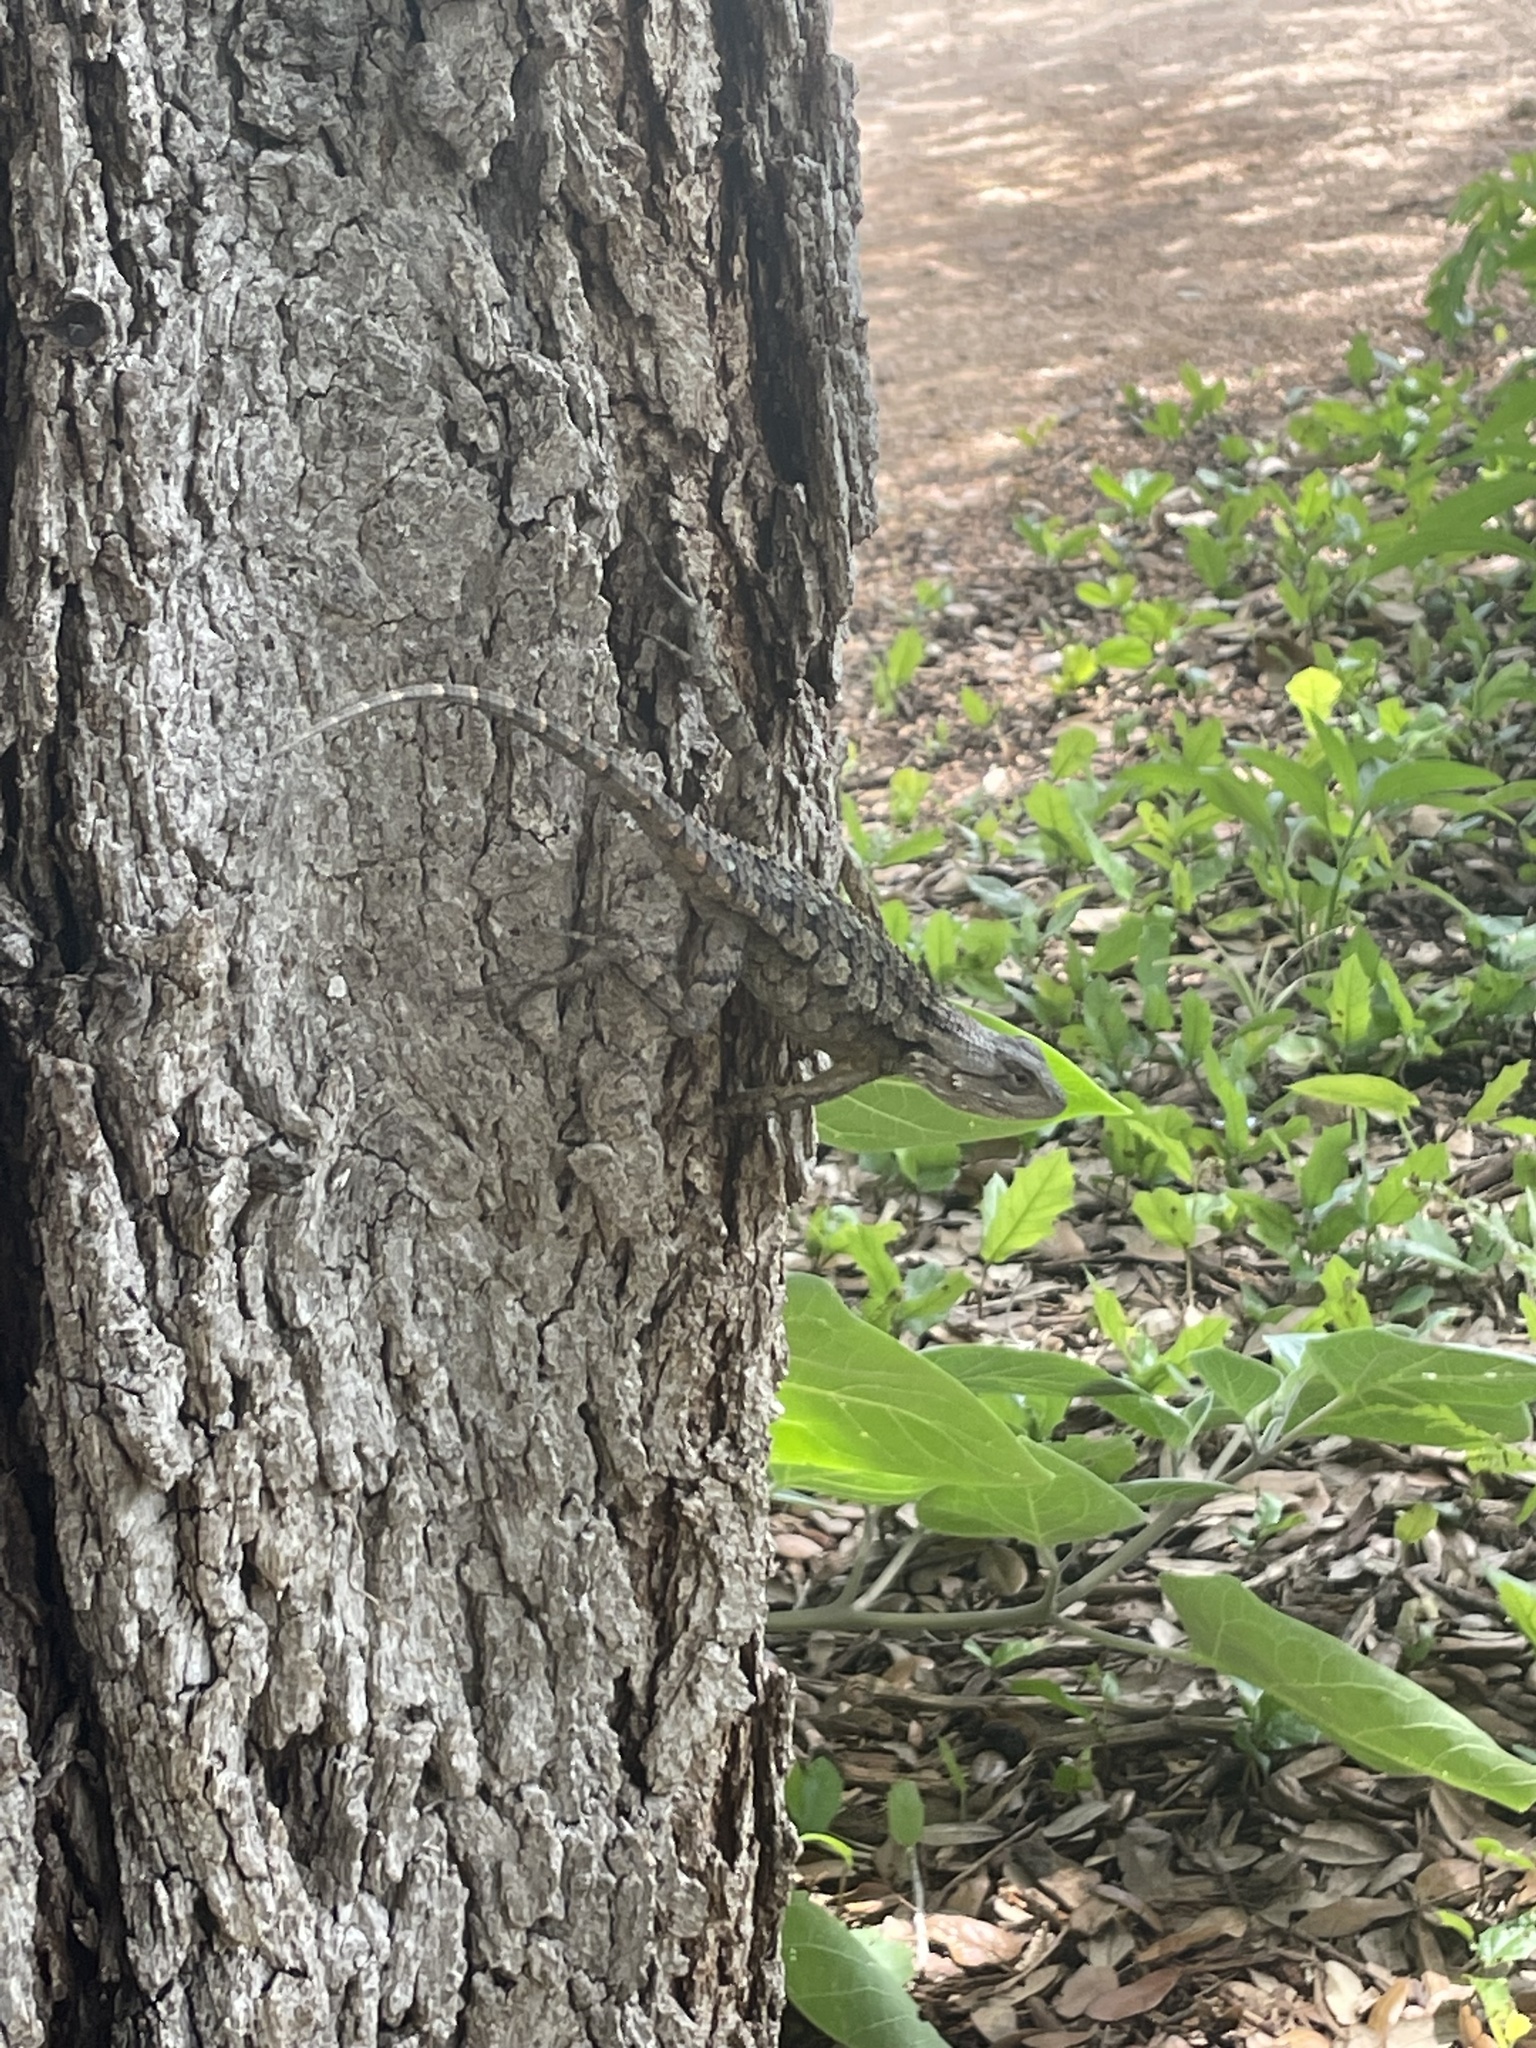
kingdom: Animalia
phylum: Chordata
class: Squamata
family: Phrynosomatidae
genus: Sceloporus
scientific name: Sceloporus olivaceus
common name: Texas spiny lizard
